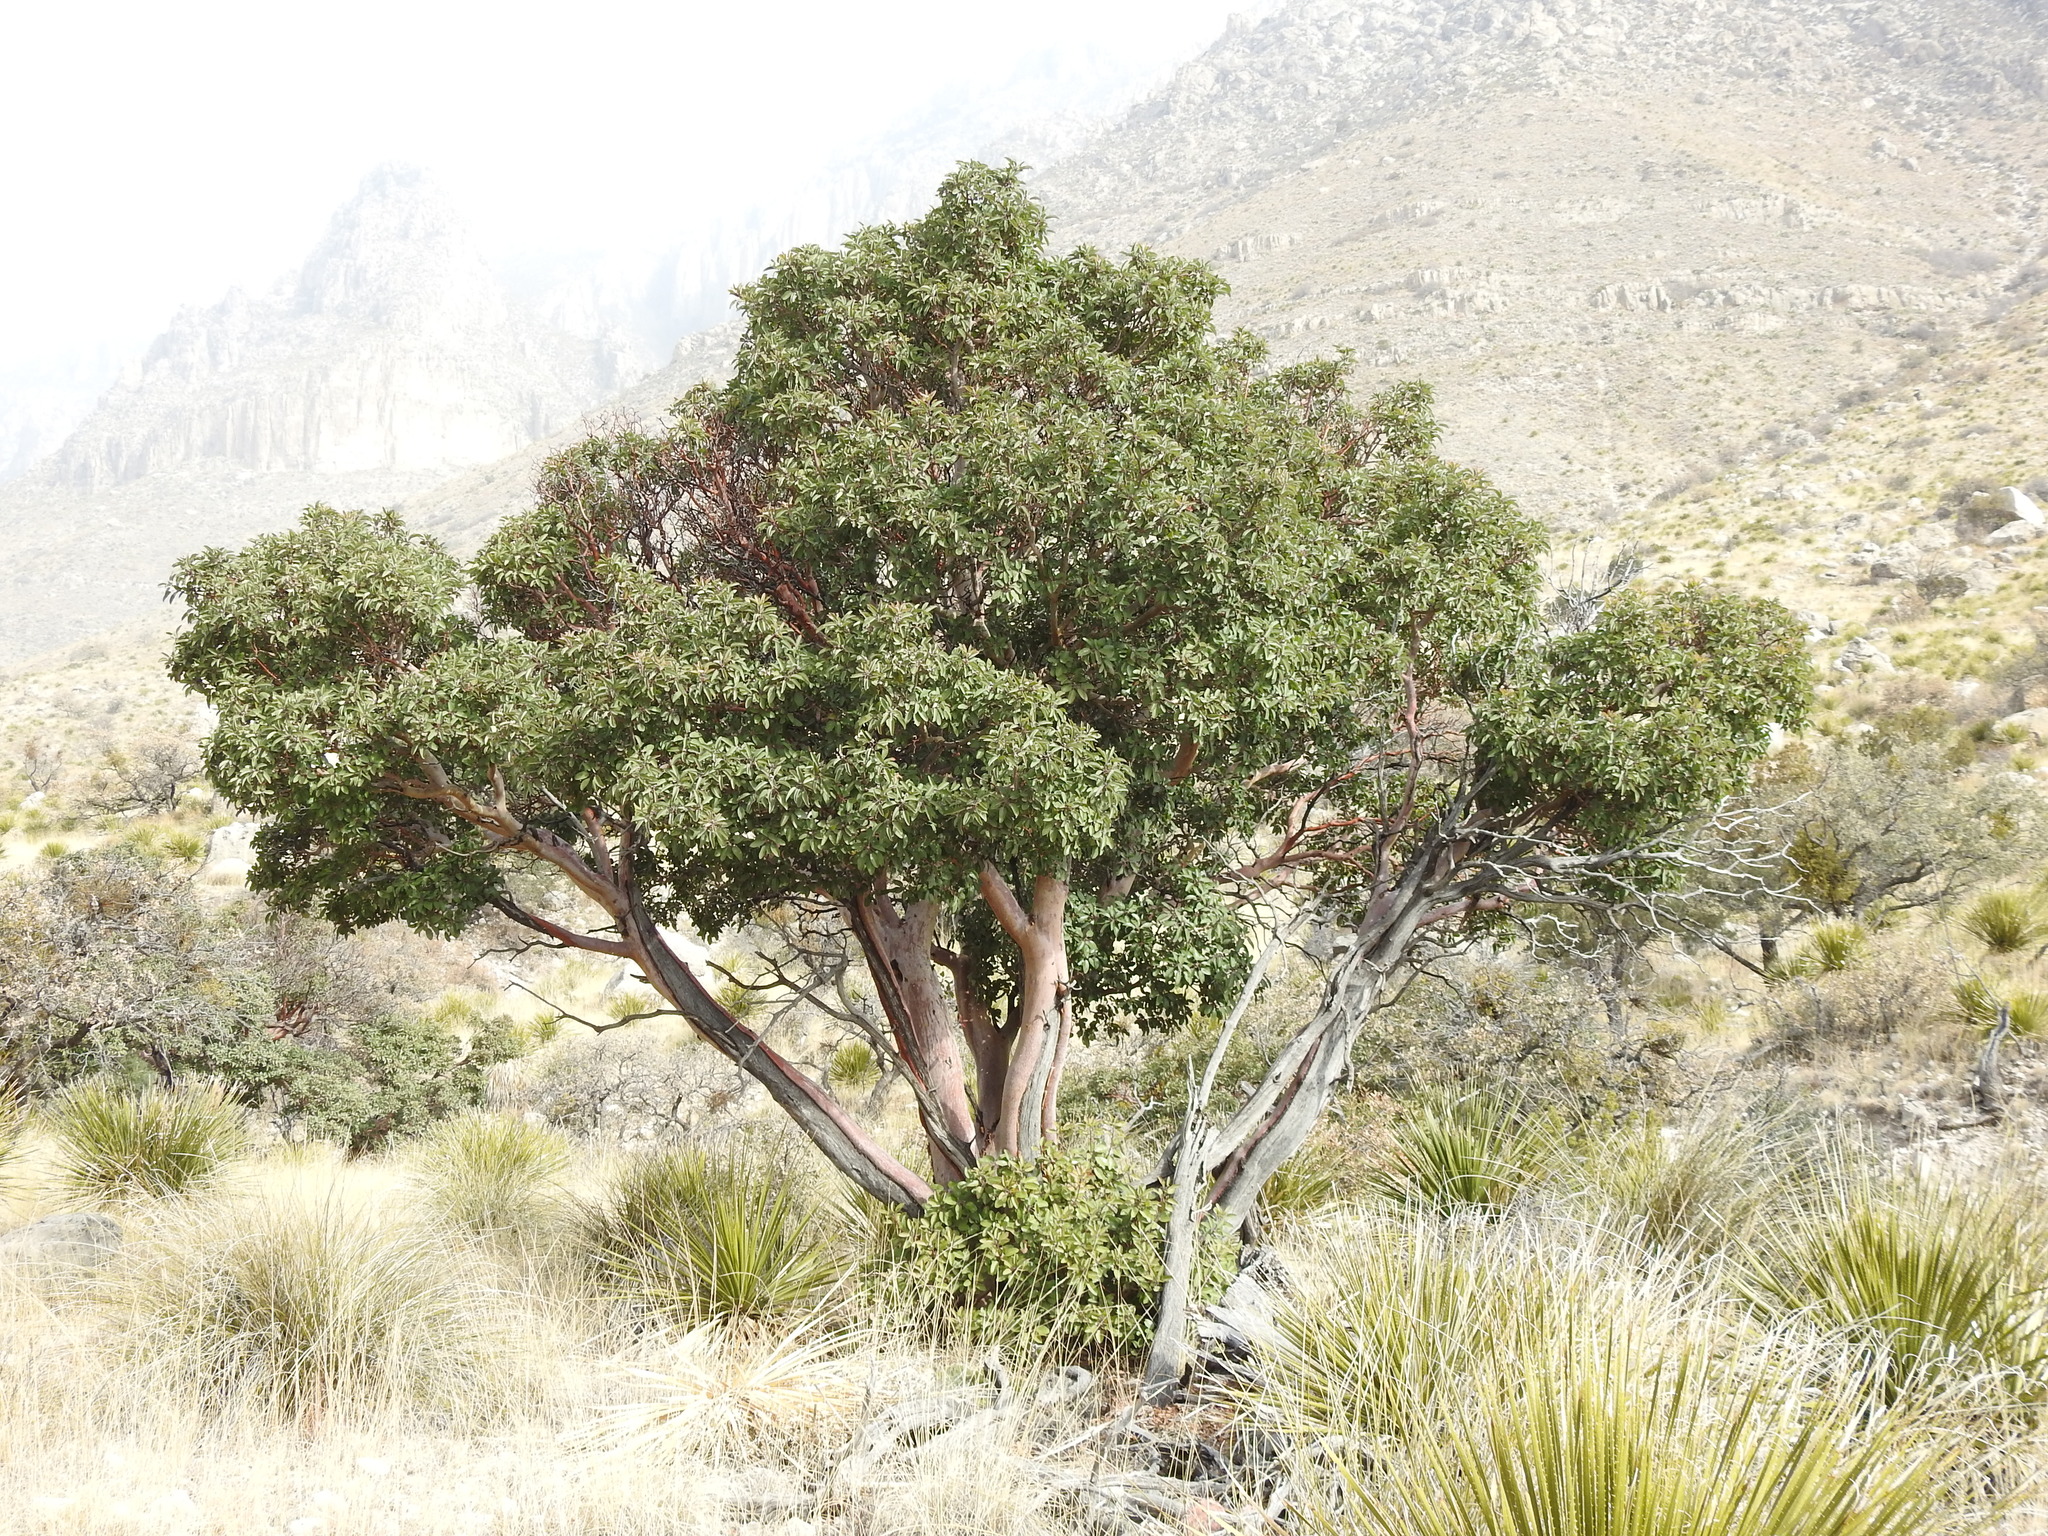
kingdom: Plantae
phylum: Tracheophyta
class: Magnoliopsida
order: Ericales
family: Ericaceae
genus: Arbutus
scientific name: Arbutus xalapensis
